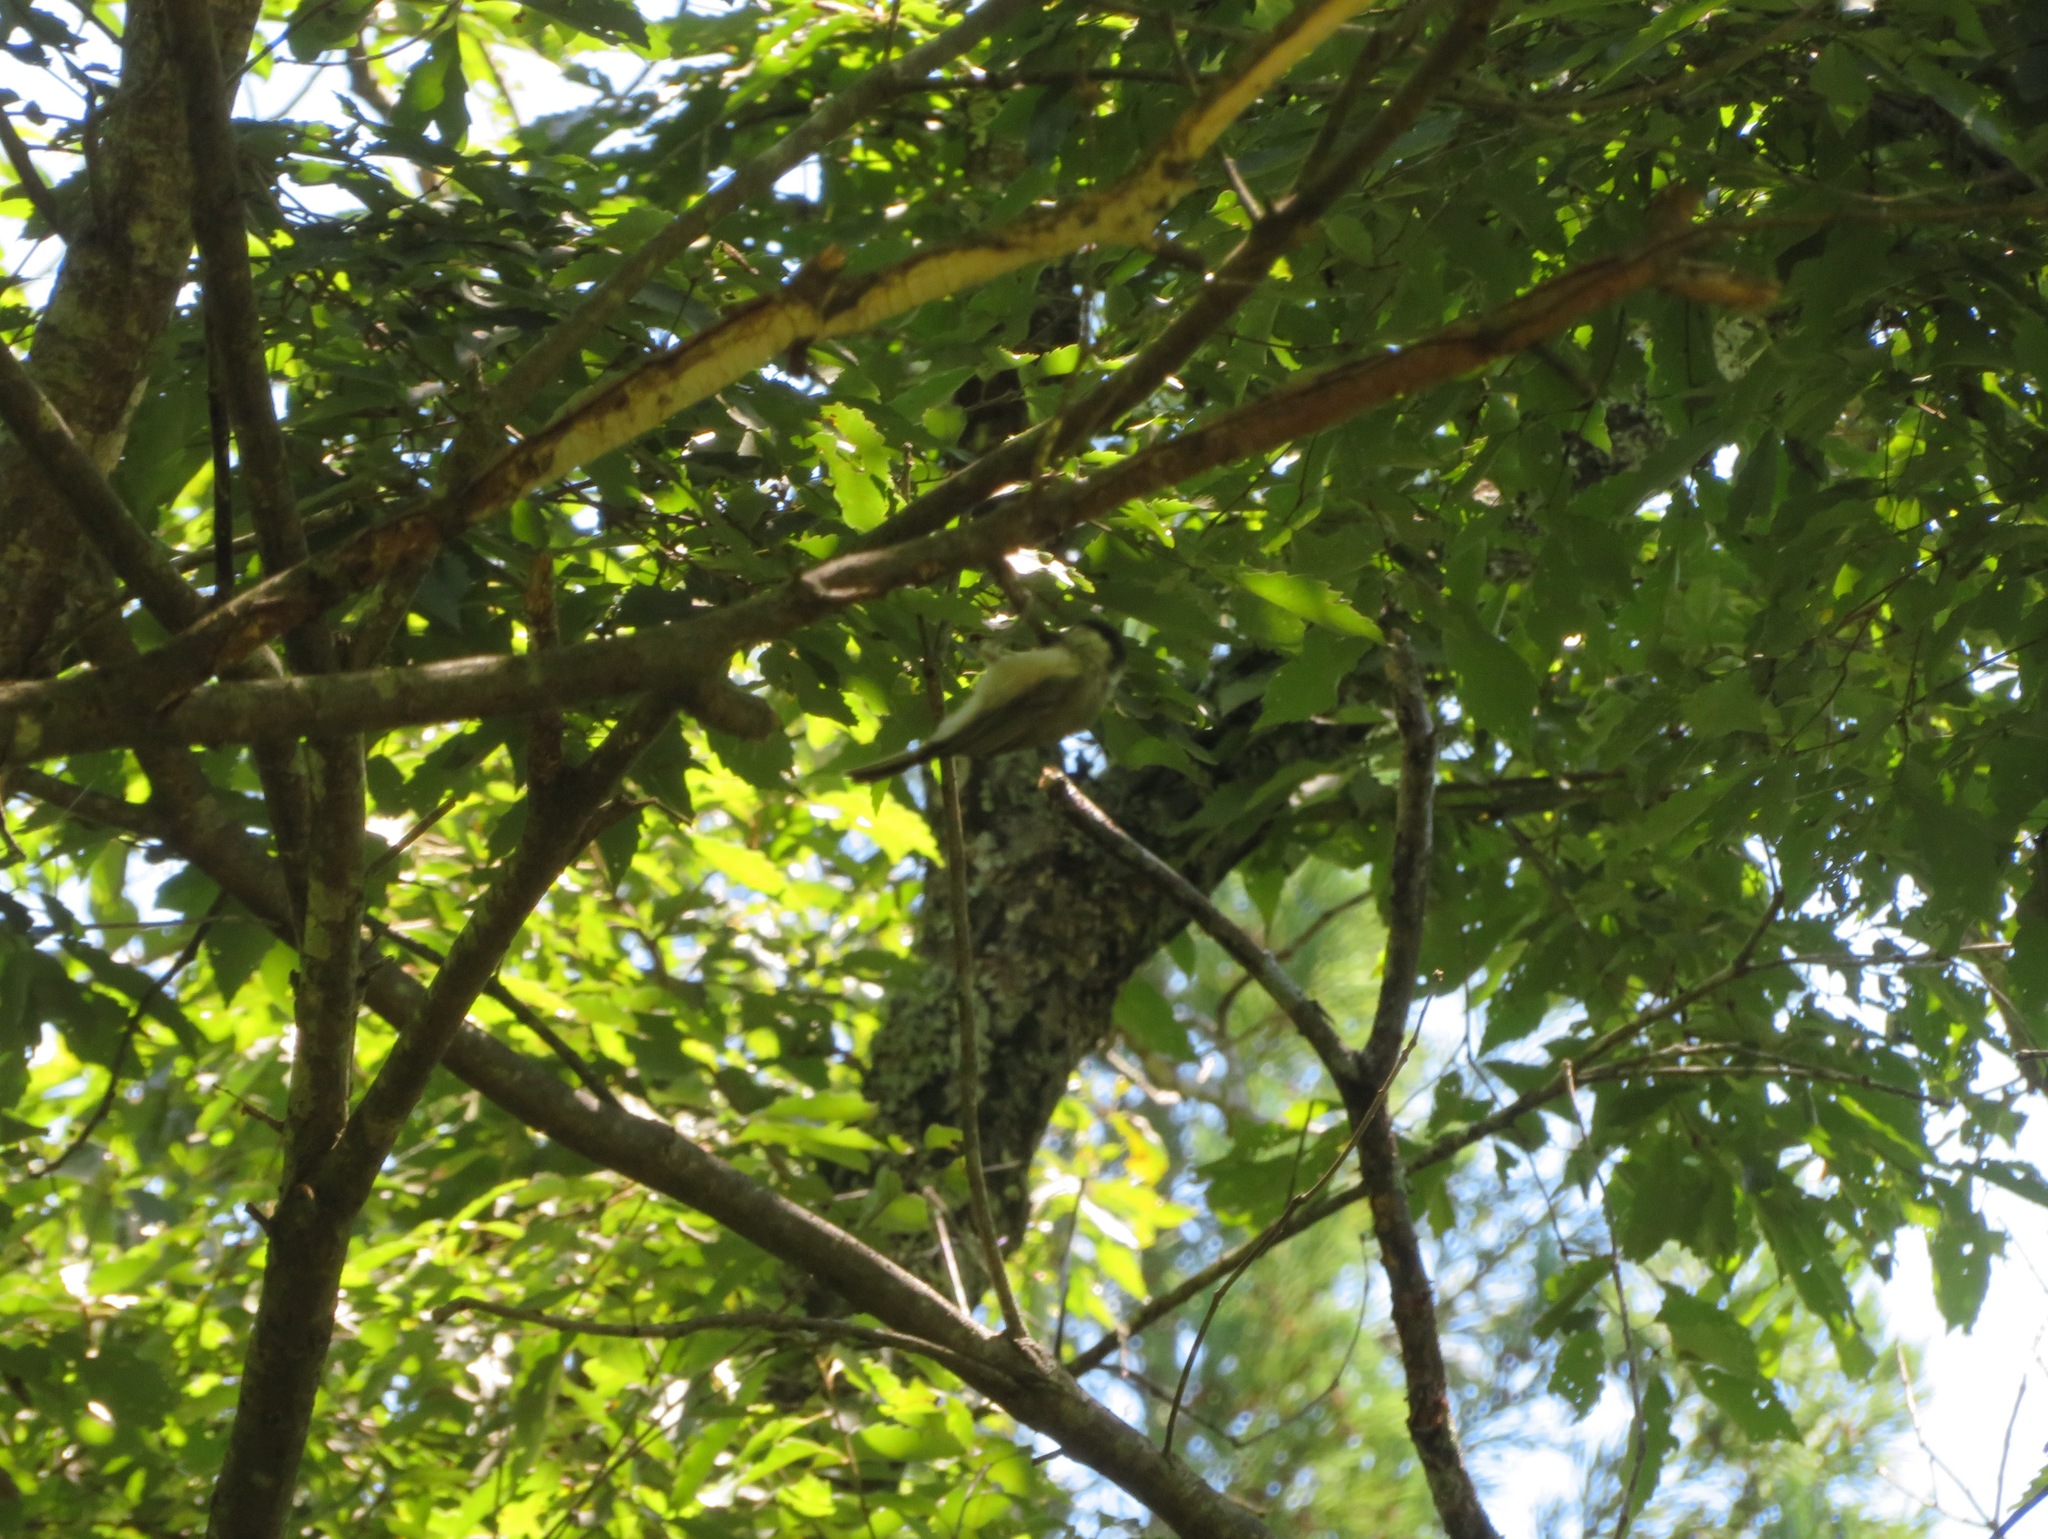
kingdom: Animalia
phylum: Chordata
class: Aves
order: Passeriformes
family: Paridae
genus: Poecile
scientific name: Poecile montanus
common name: Willow tit
